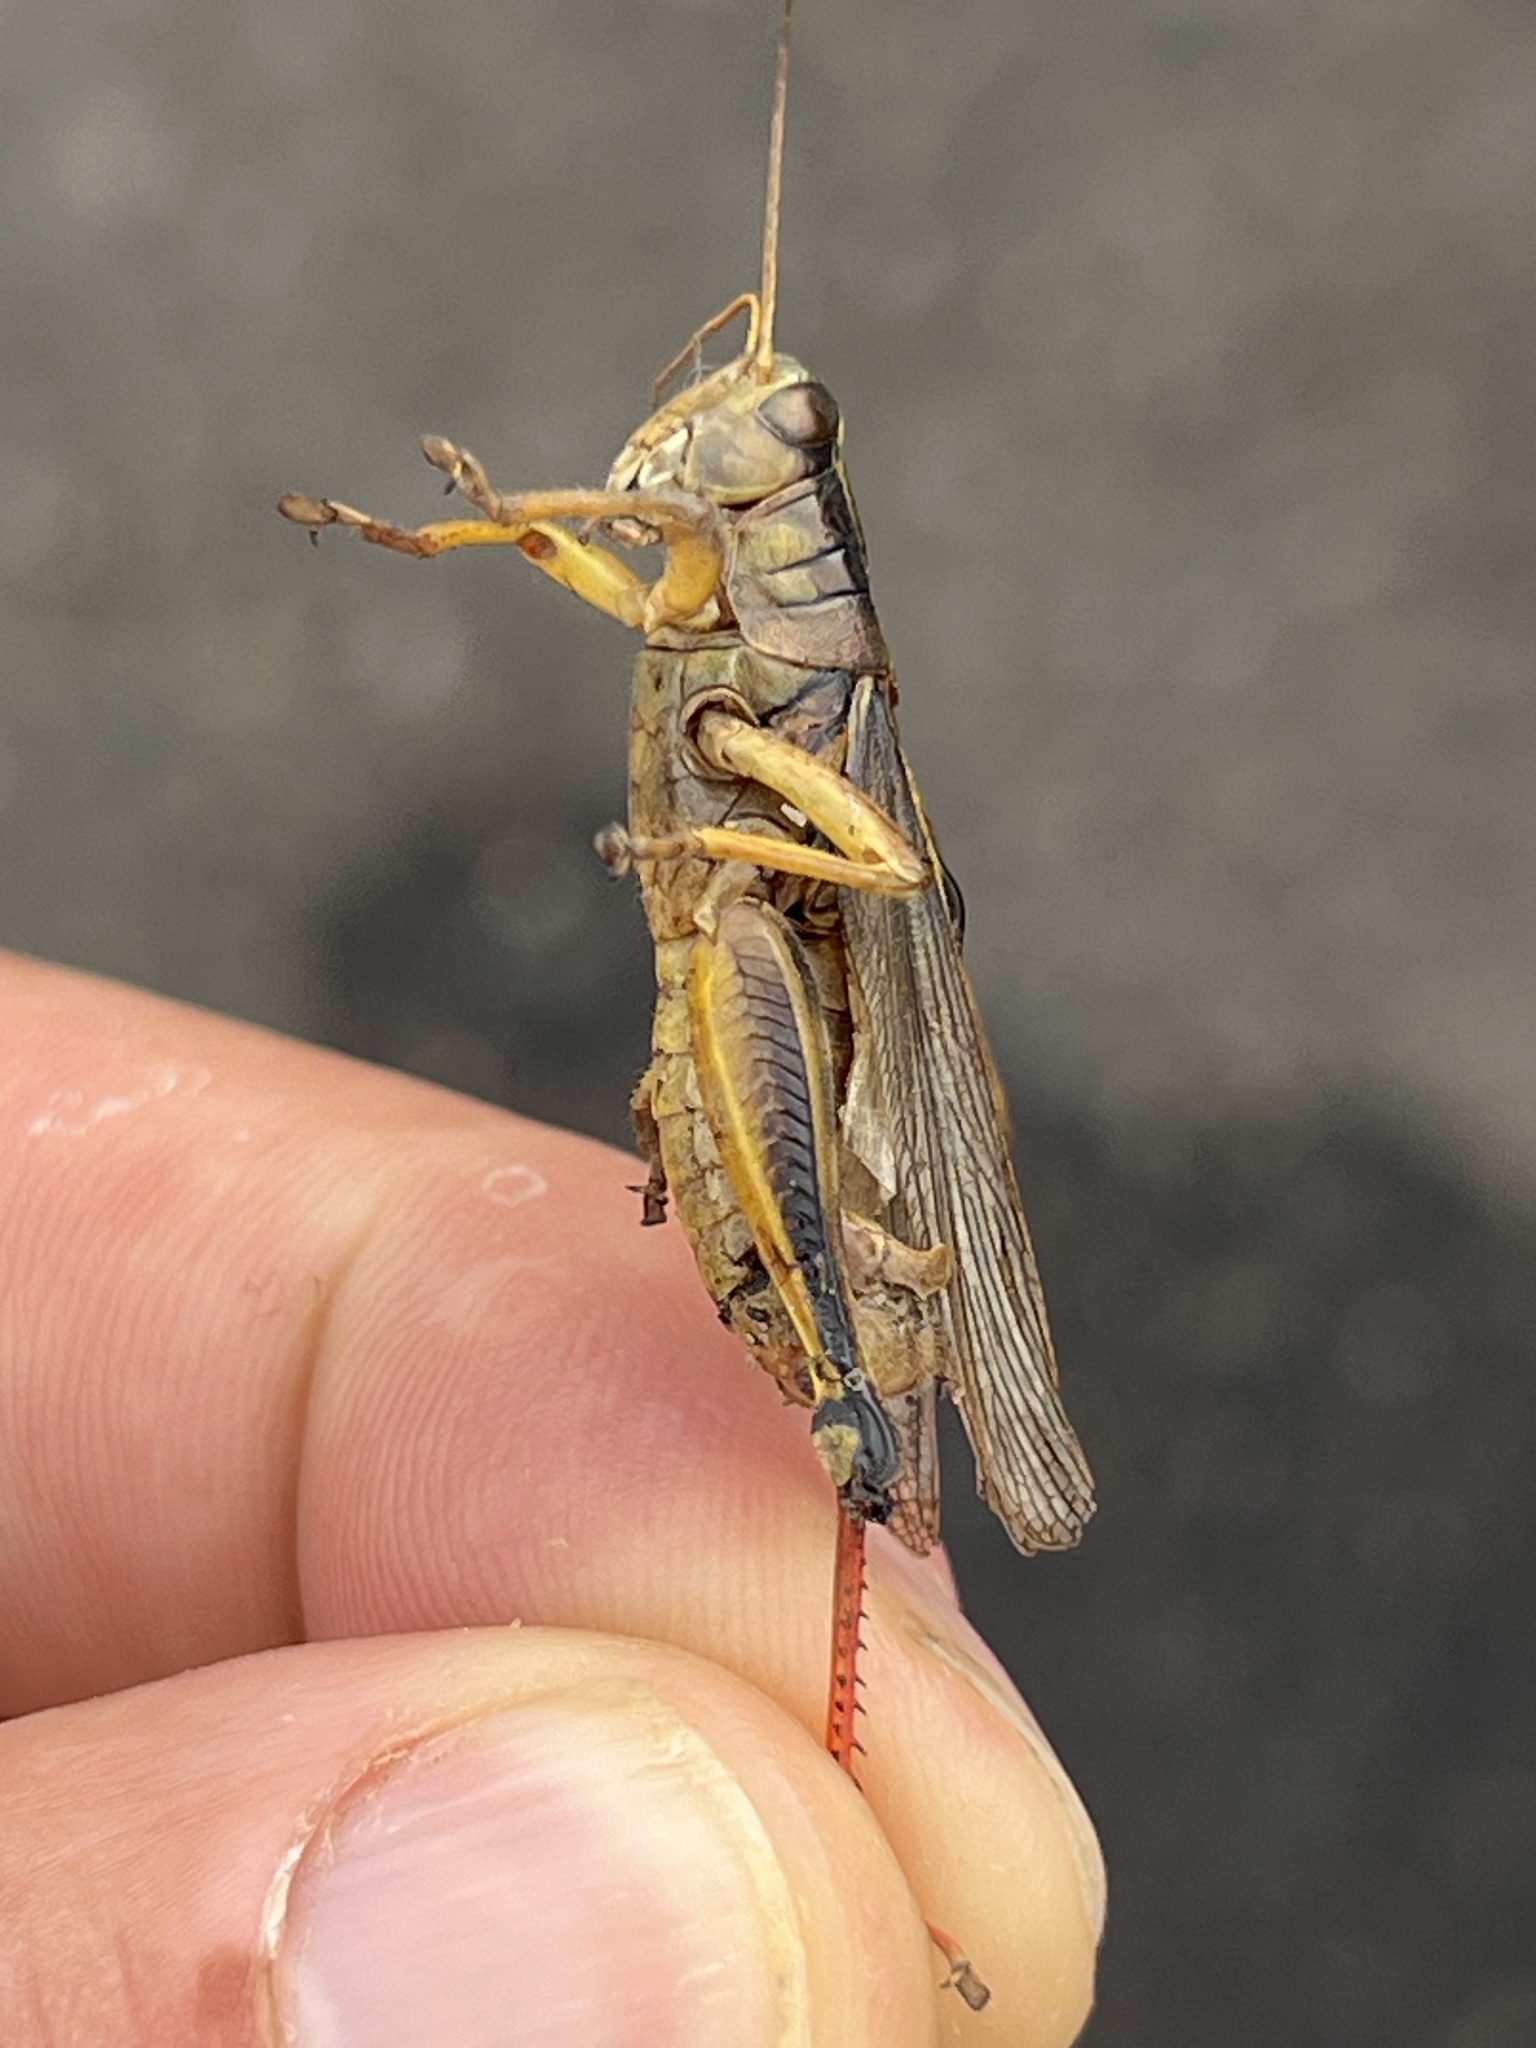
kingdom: Animalia
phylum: Arthropoda
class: Insecta
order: Orthoptera
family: Acrididae
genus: Melanoplus
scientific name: Melanoplus bivittatus
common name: Two-striped grasshopper
